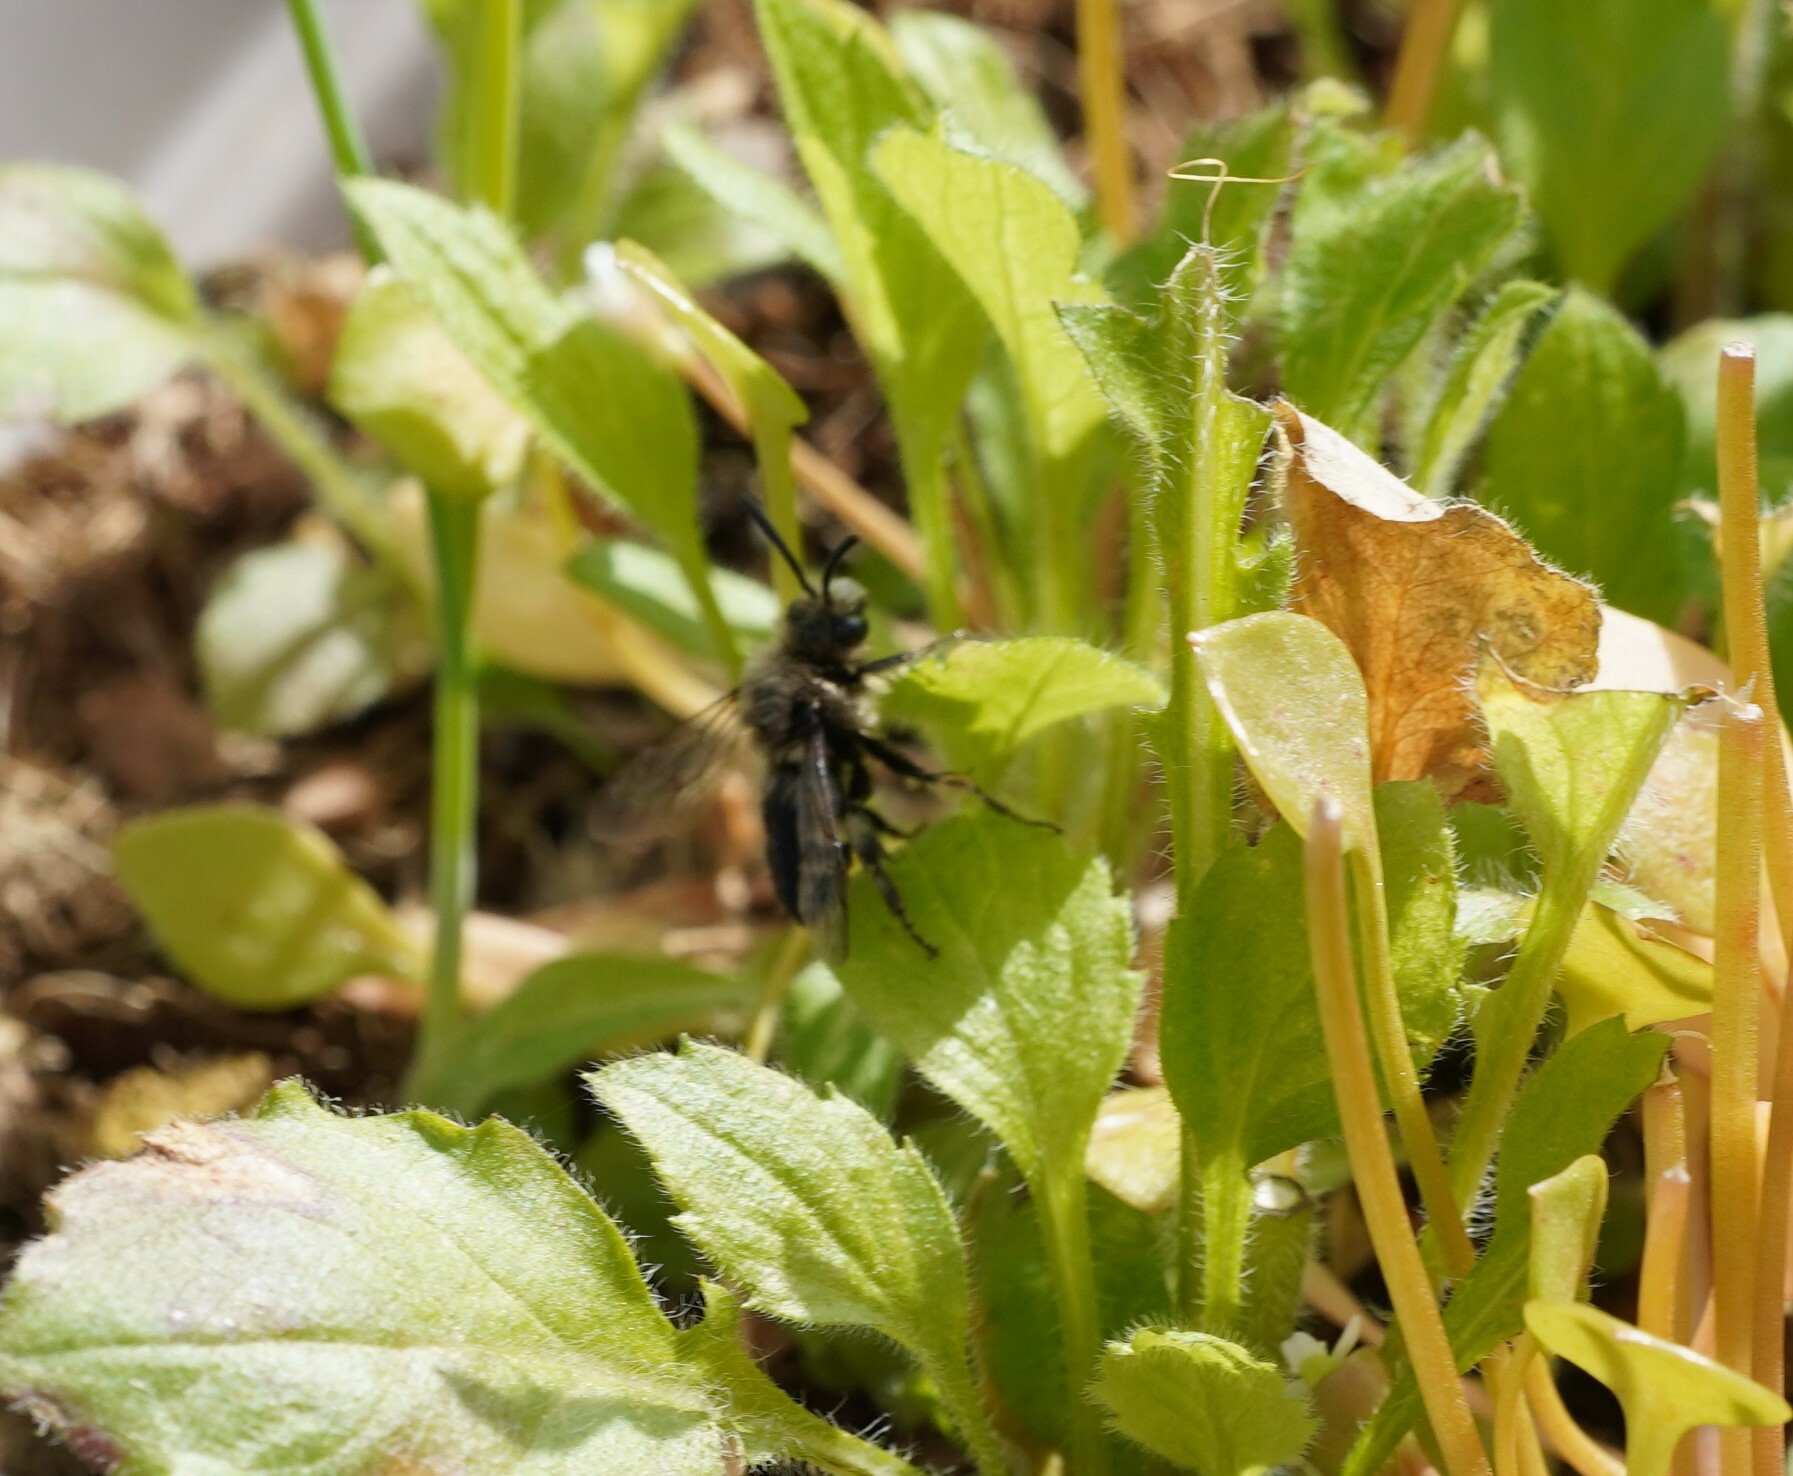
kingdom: Animalia
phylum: Arthropoda
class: Insecta
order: Hymenoptera
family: Apidae
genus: Melecta
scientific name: Melecta albifrons
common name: Common mourning bee
